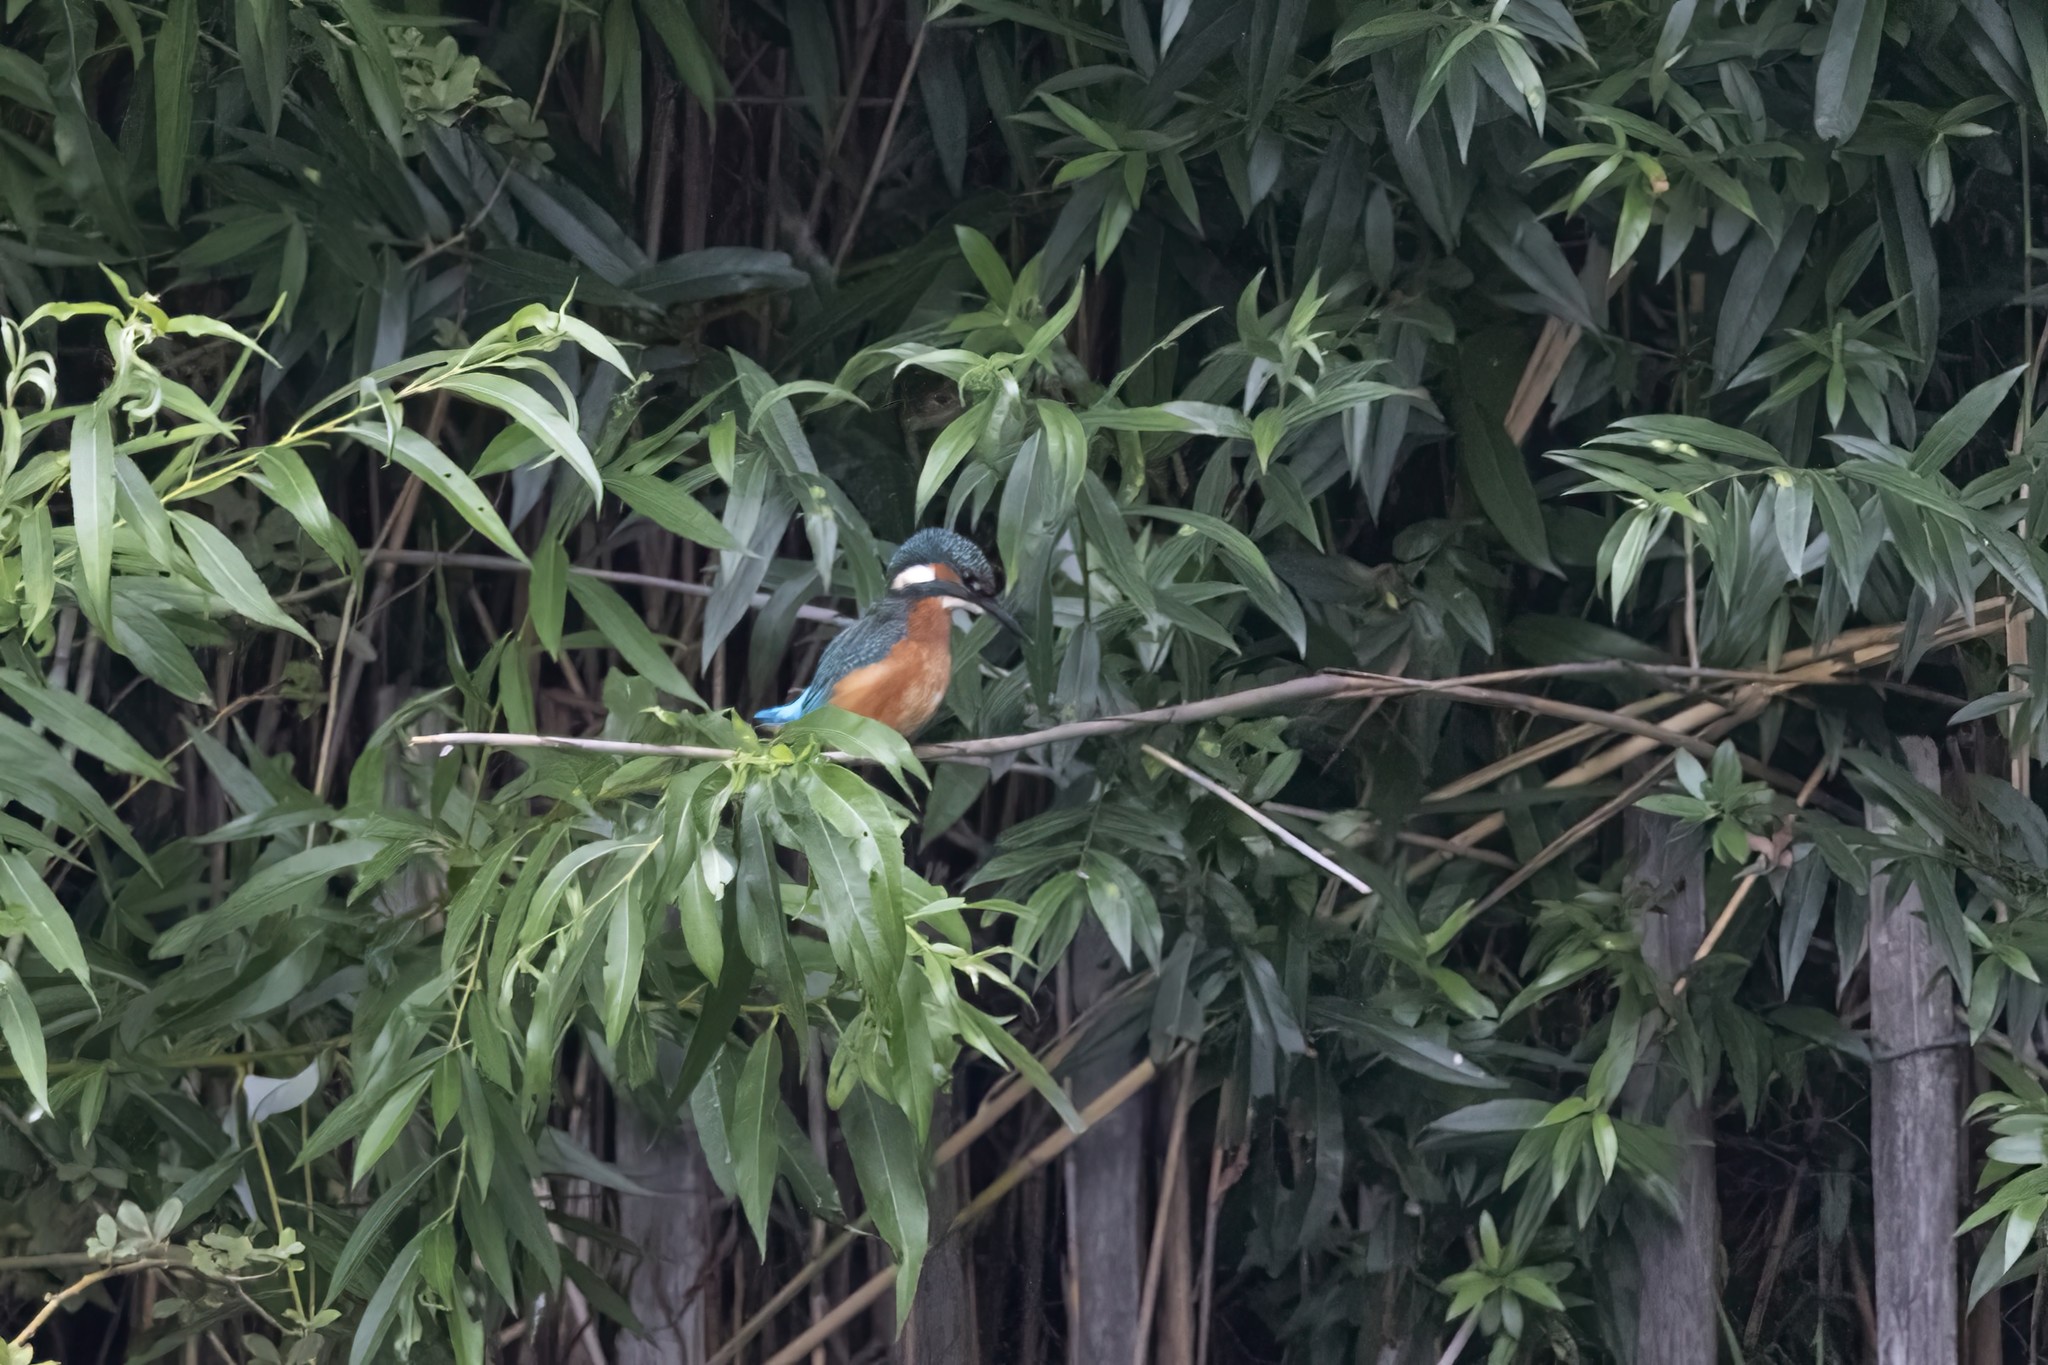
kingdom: Animalia
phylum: Chordata
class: Aves
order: Coraciiformes
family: Alcedinidae
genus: Alcedo
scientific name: Alcedo atthis
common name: Common kingfisher
